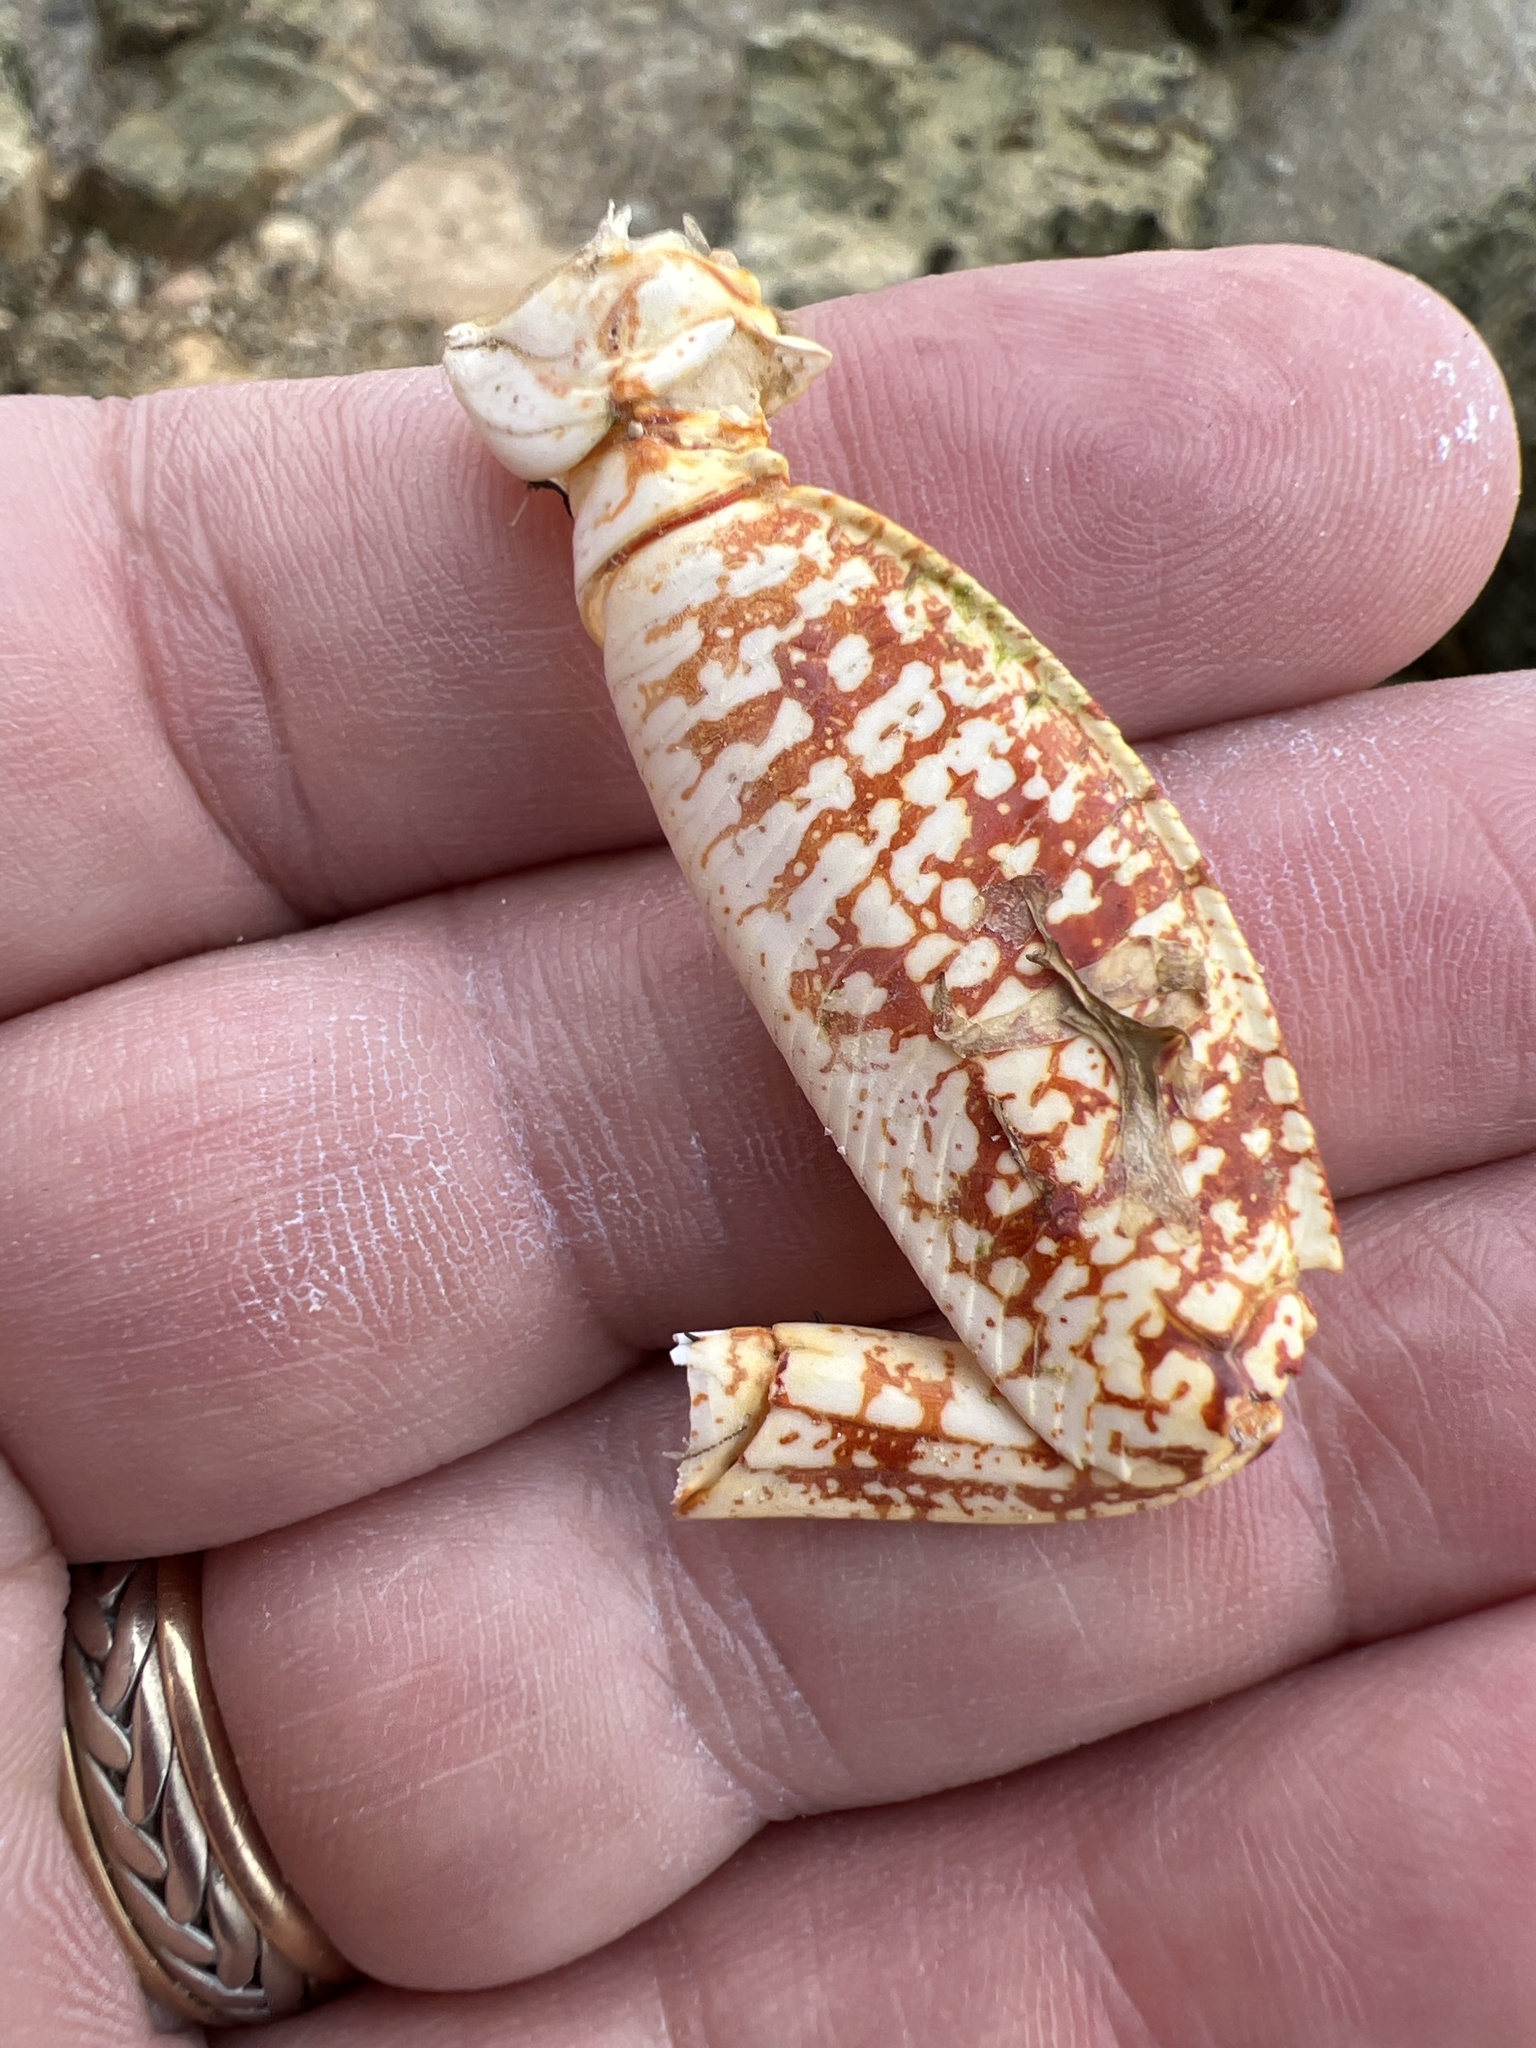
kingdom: Animalia
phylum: Arthropoda
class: Malacostraca
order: Decapoda
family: Grapsidae
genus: Grapsus
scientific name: Grapsus grapsus
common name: Sally lightfoot
